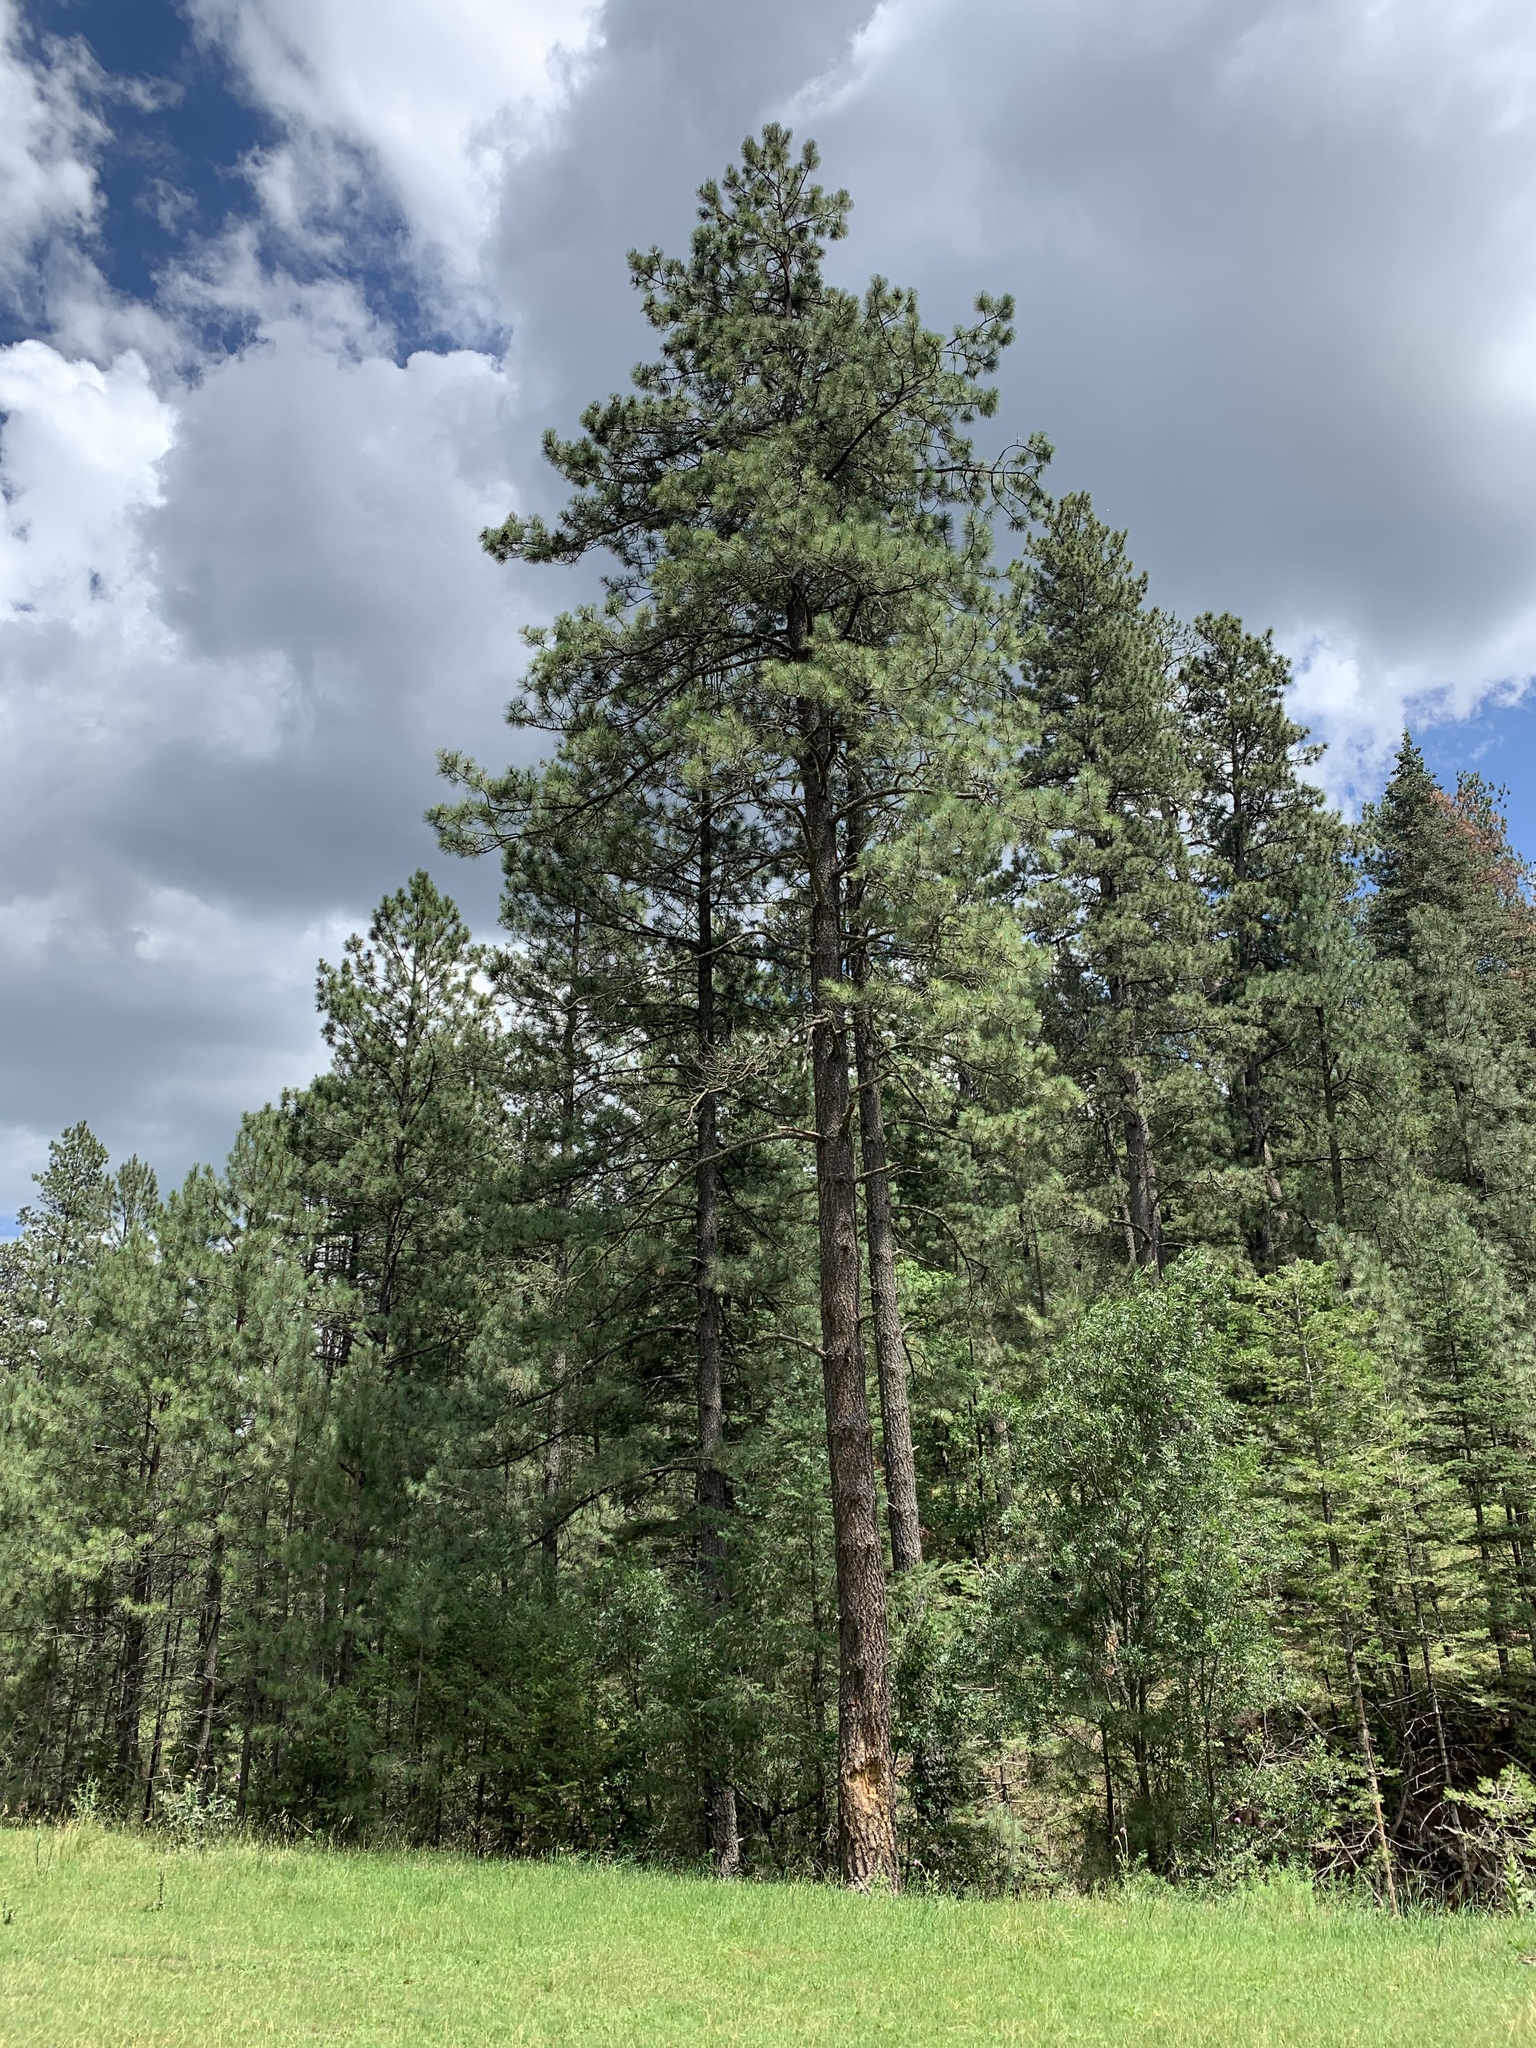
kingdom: Plantae
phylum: Tracheophyta
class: Pinopsida
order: Pinales
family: Pinaceae
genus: Pinus
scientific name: Pinus ponderosa
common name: Western yellow-pine
